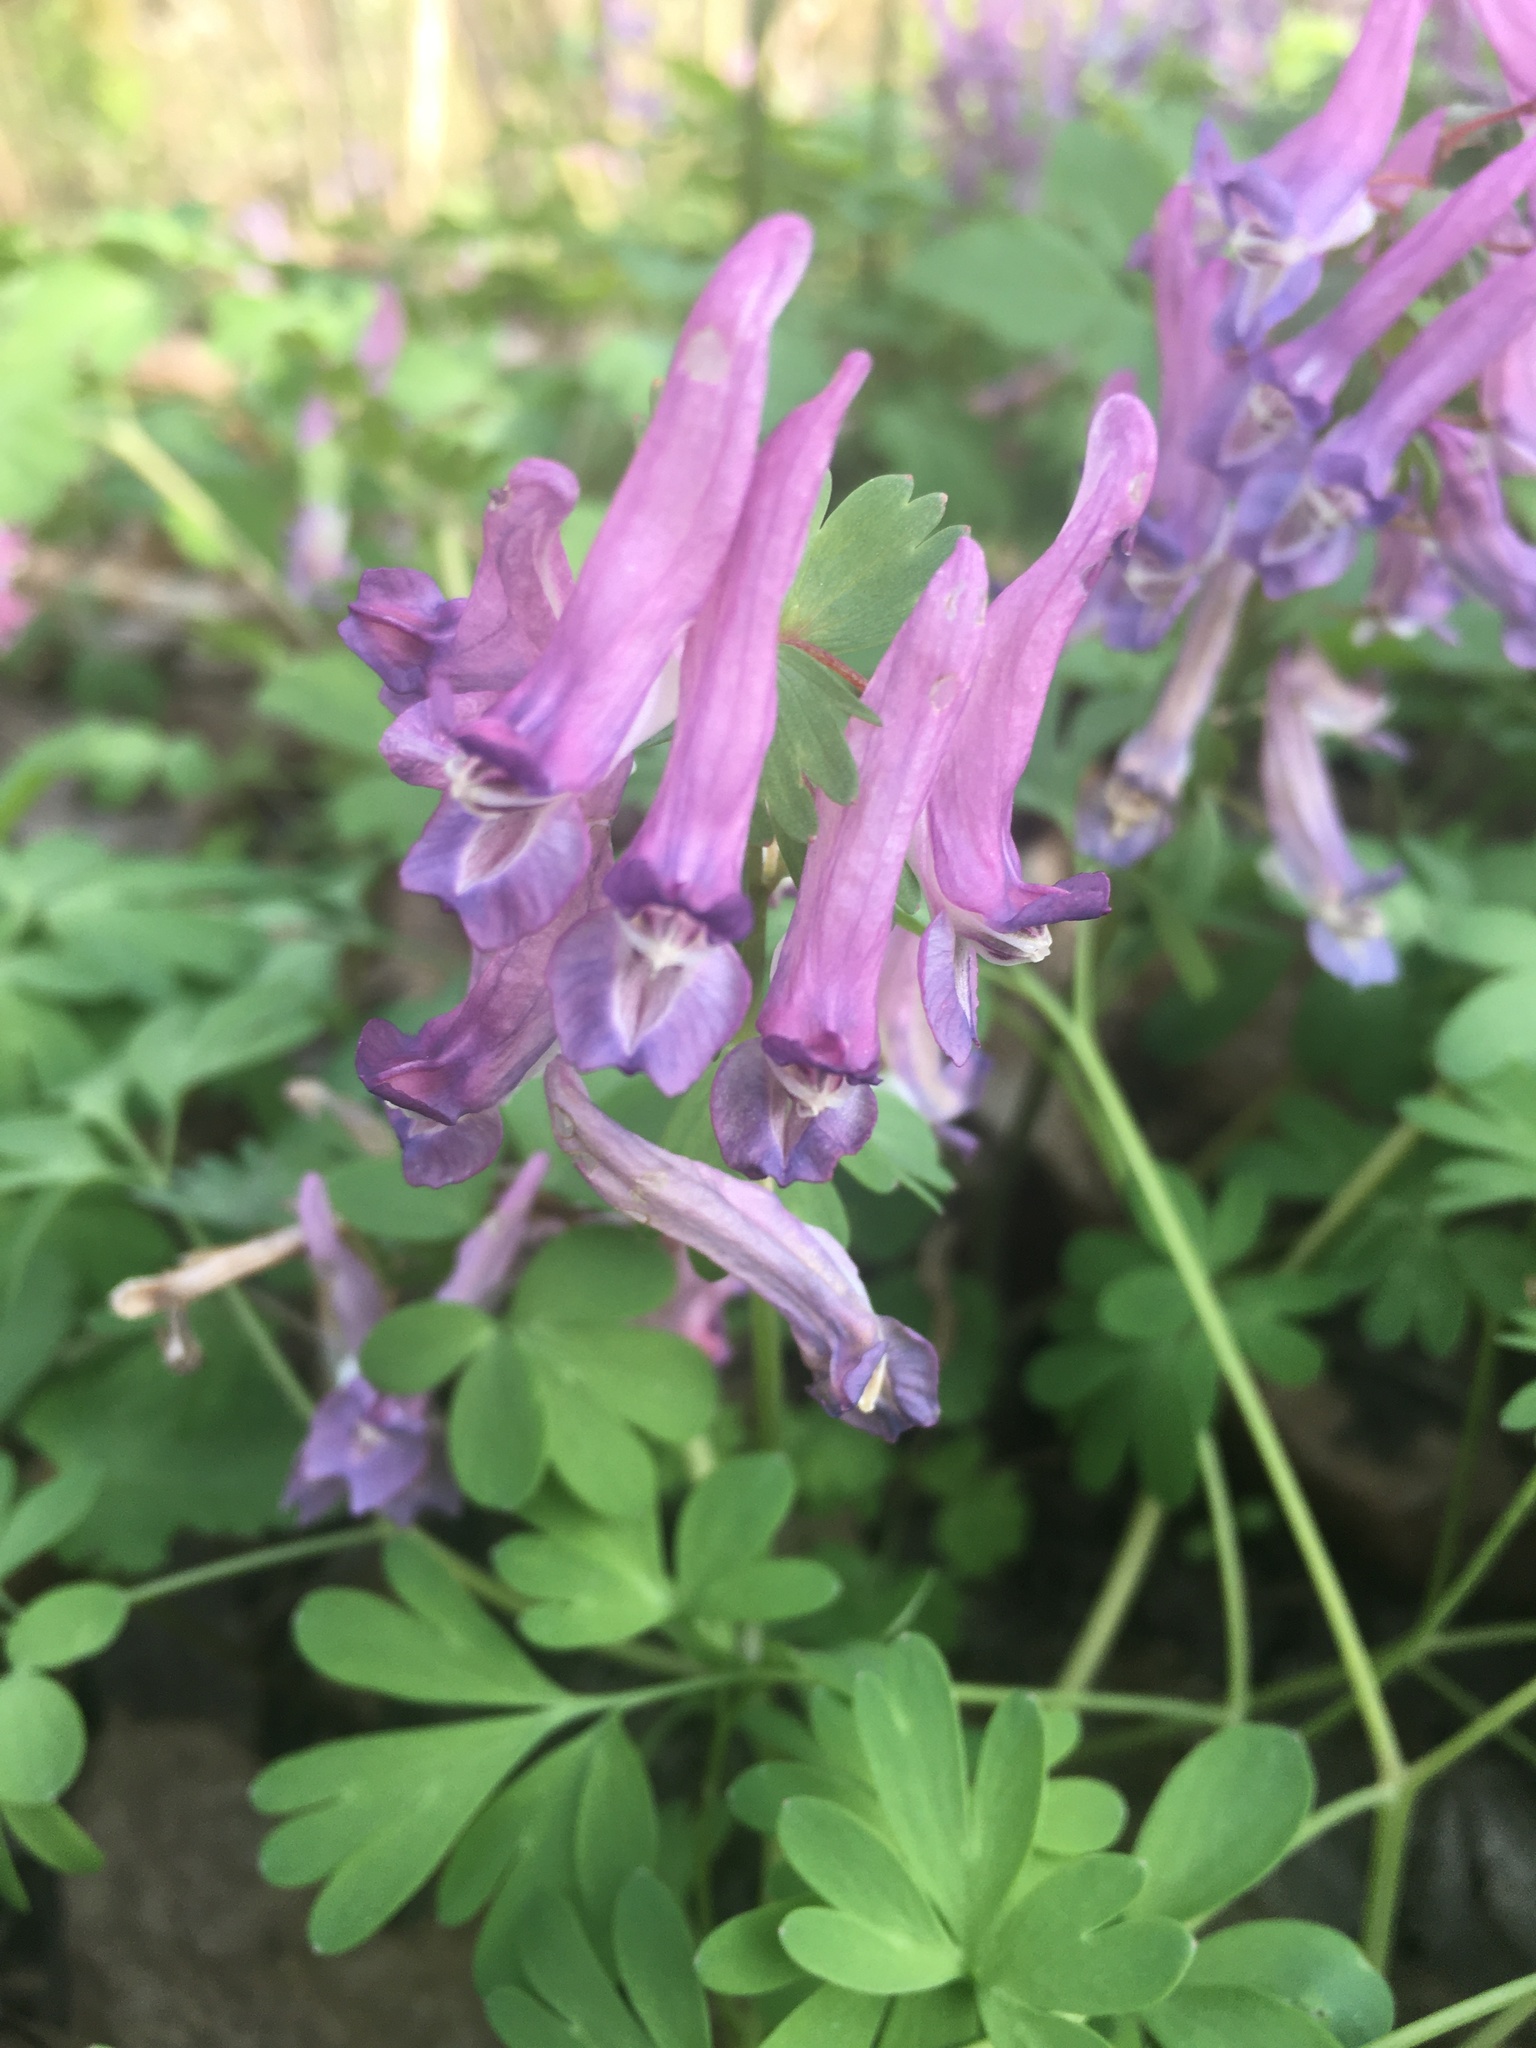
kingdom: Plantae
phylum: Tracheophyta
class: Magnoliopsida
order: Ranunculales
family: Papaveraceae
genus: Corydalis
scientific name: Corydalis solida
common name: Bird-in-a-bush
